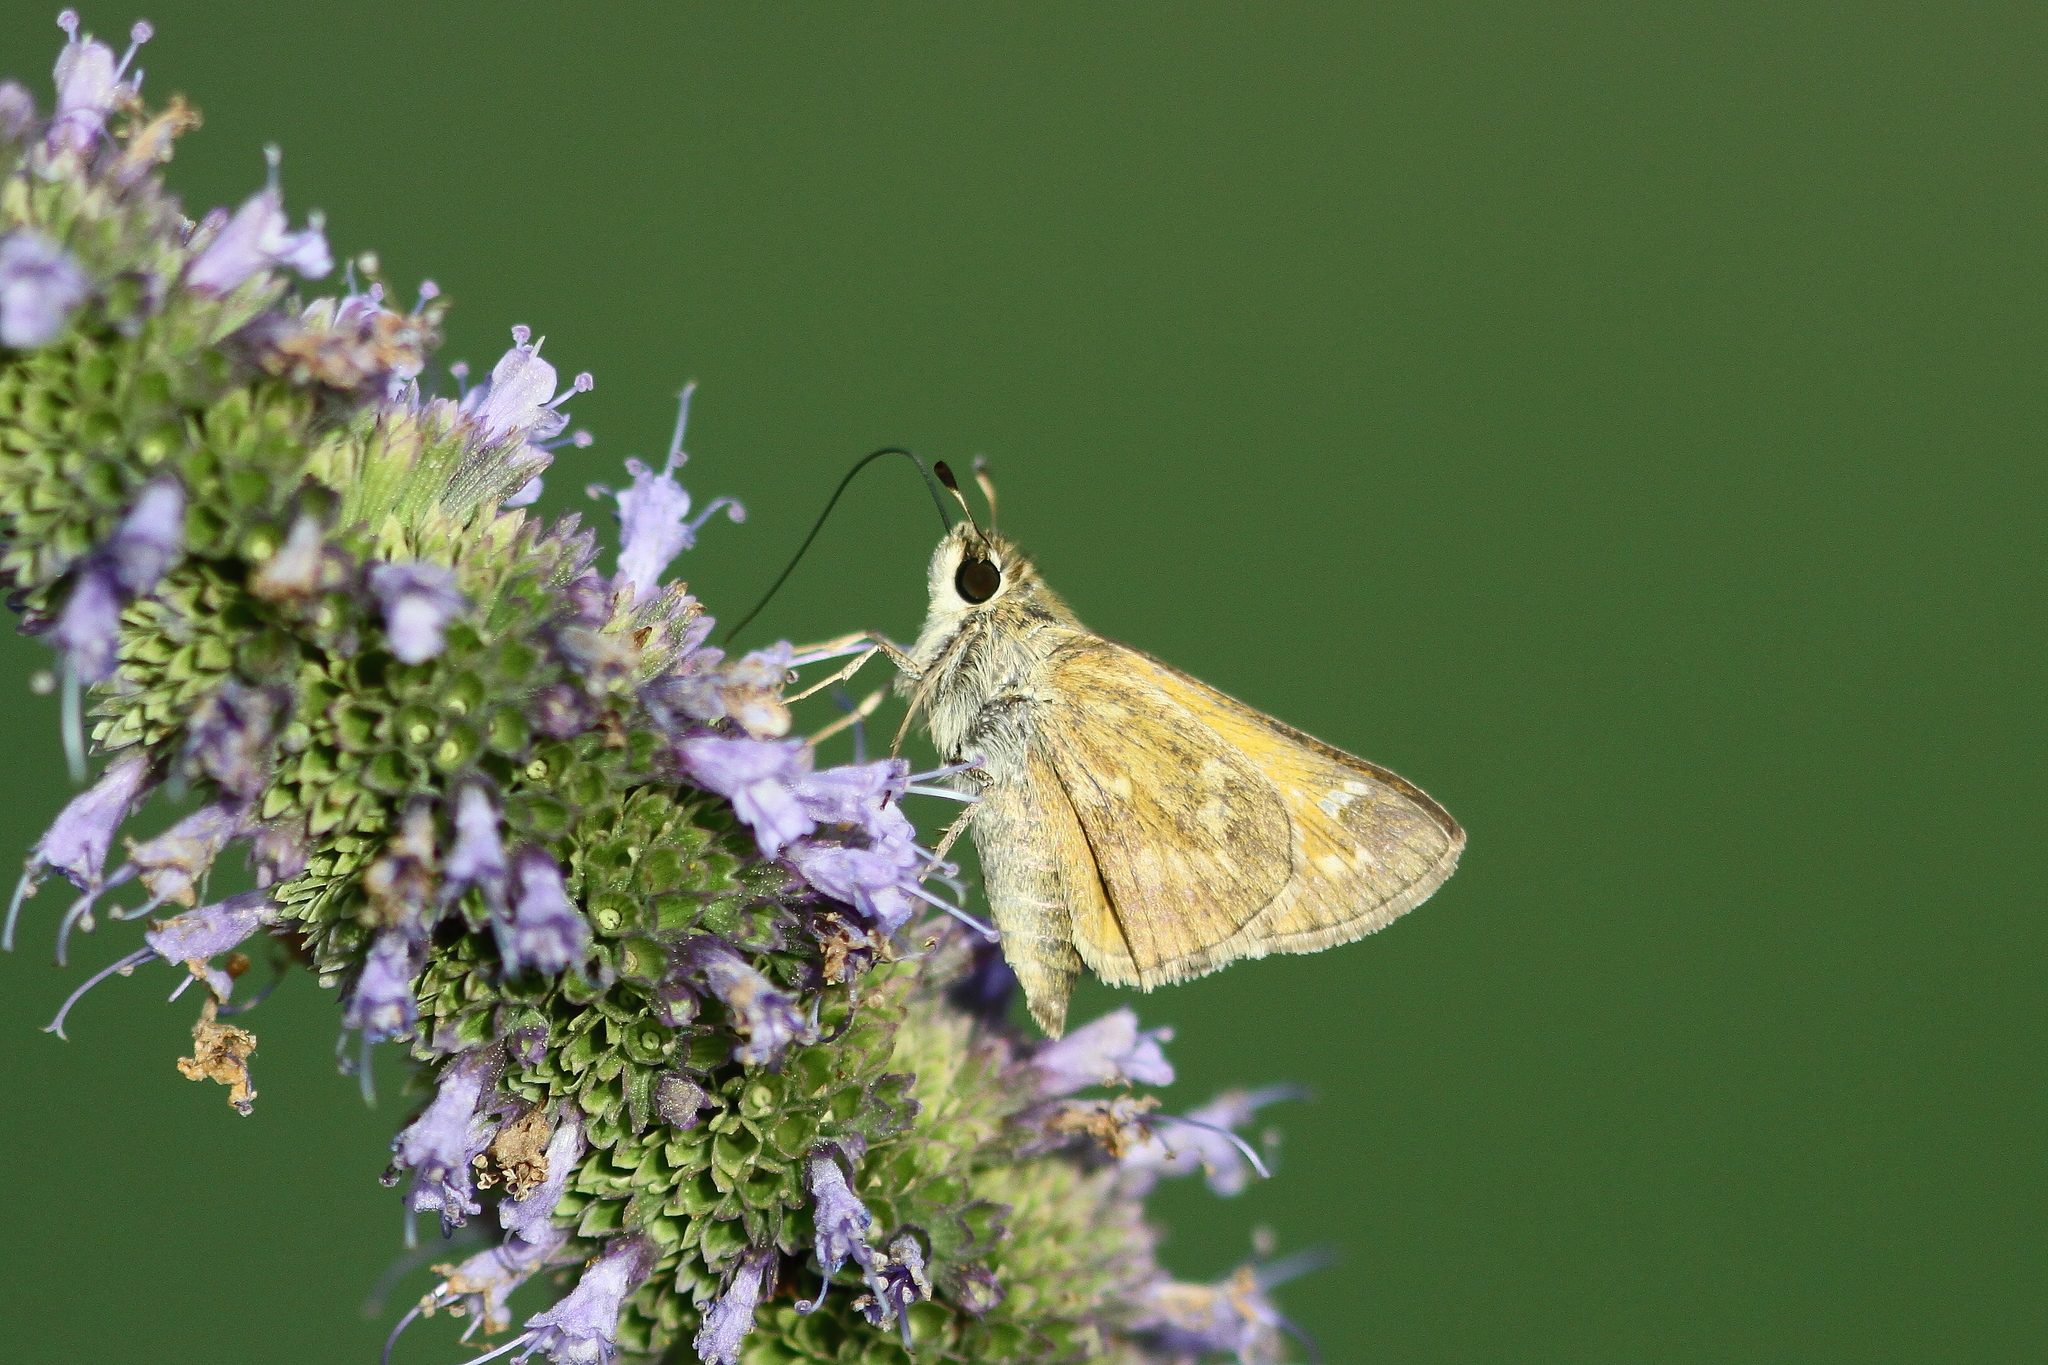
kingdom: Animalia
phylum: Arthropoda
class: Insecta
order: Lepidoptera
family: Hesperiidae
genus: Atalopedes
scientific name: Atalopedes
